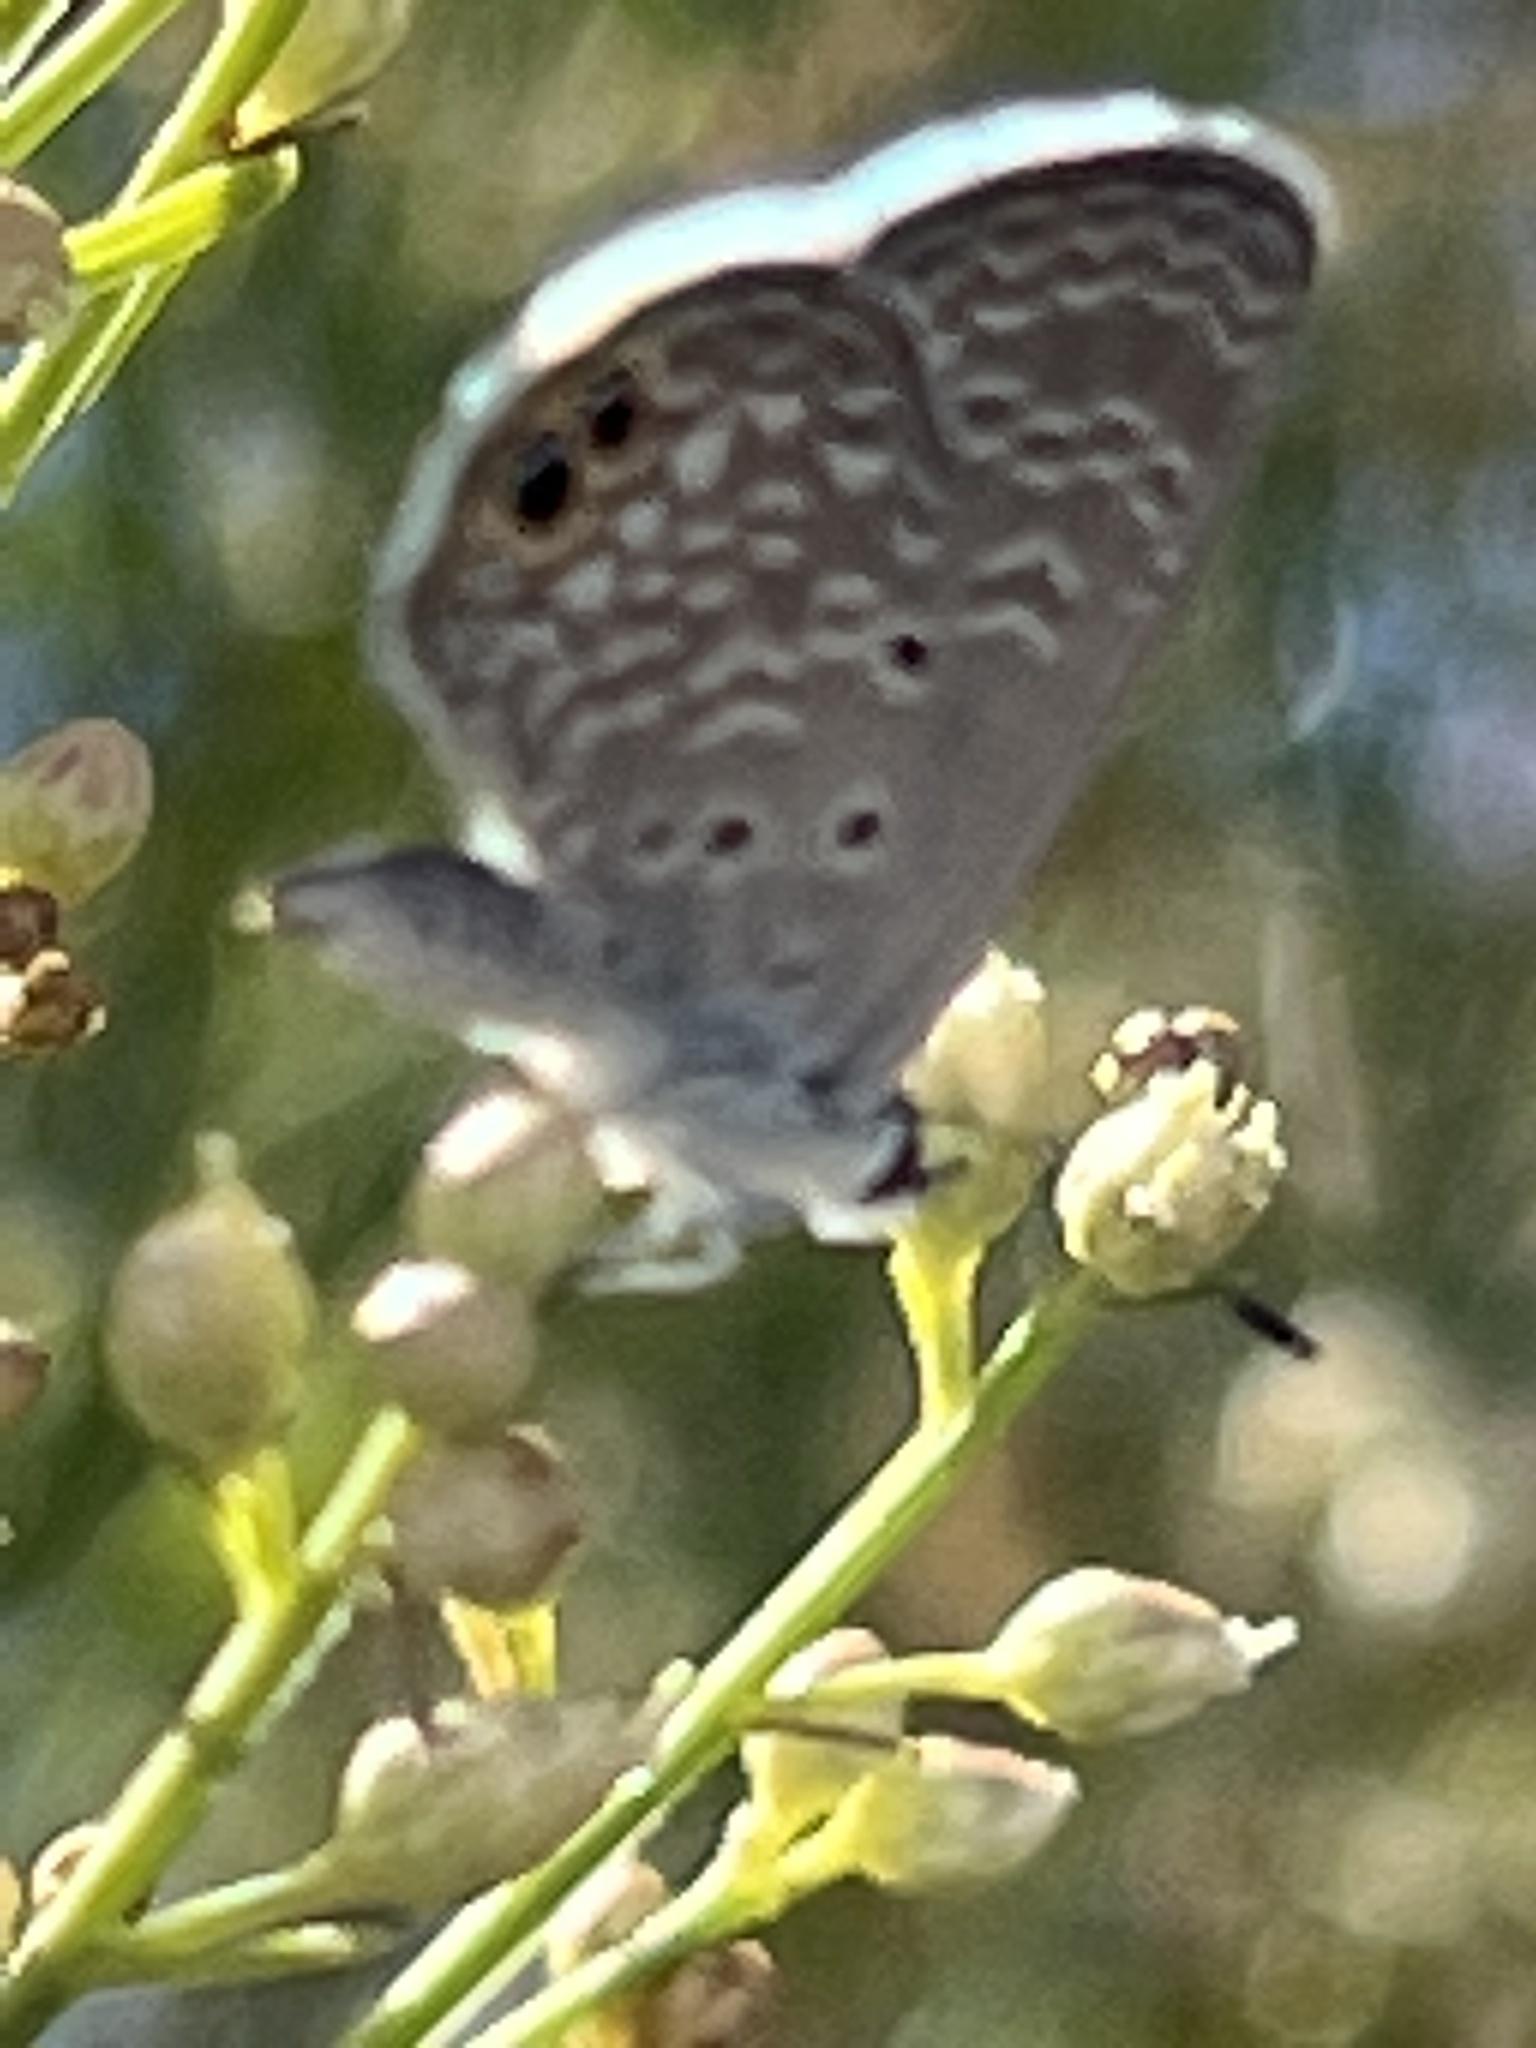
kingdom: Animalia
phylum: Arthropoda
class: Insecta
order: Lepidoptera
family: Lycaenidae
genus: Hemiargus
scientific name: Hemiargus ceraunus
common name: Ceraunus blue
